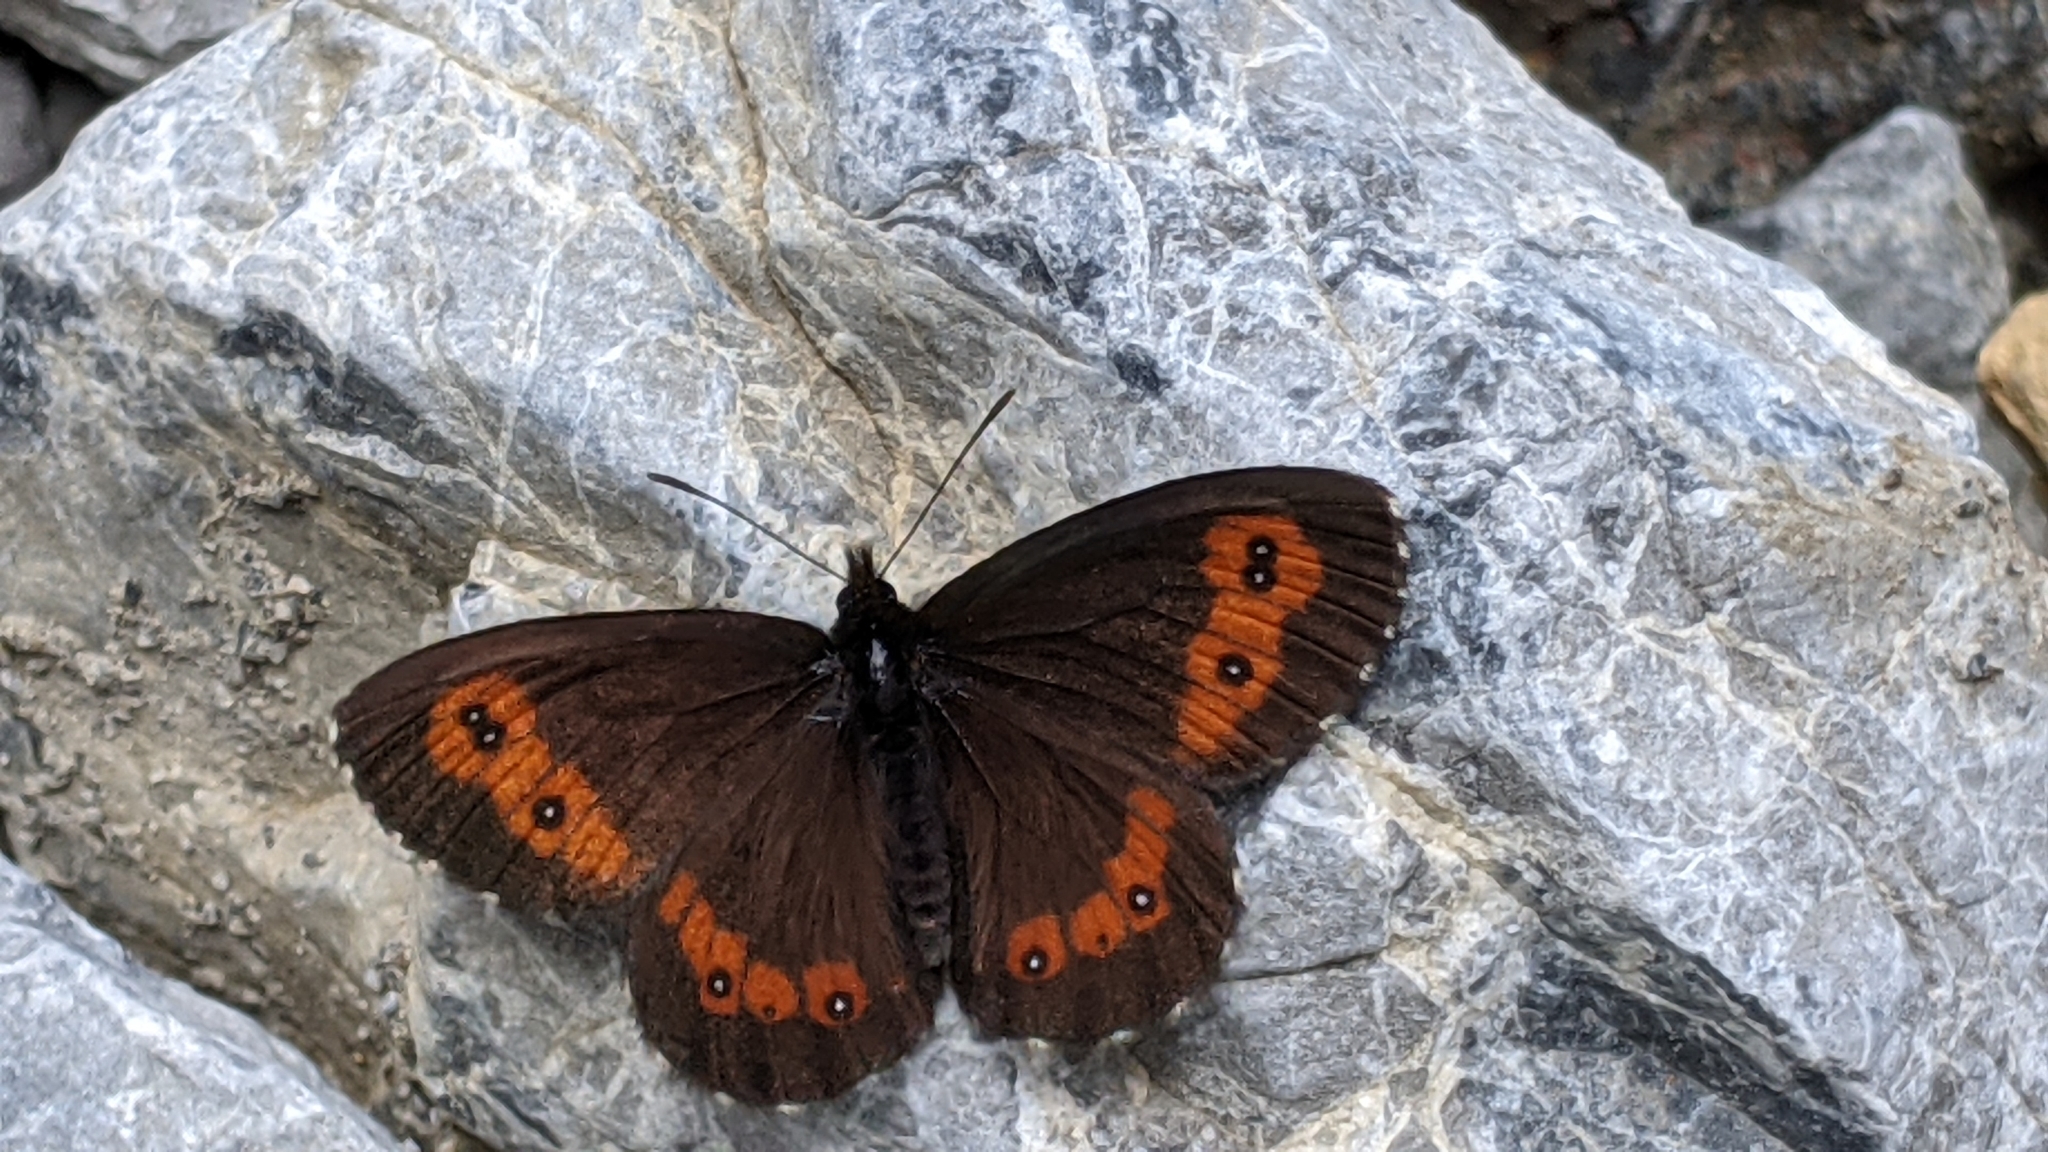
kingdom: Animalia
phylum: Arthropoda
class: Insecta
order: Lepidoptera
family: Nymphalidae
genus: Erebia
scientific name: Erebia euryale
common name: Large ringlet
